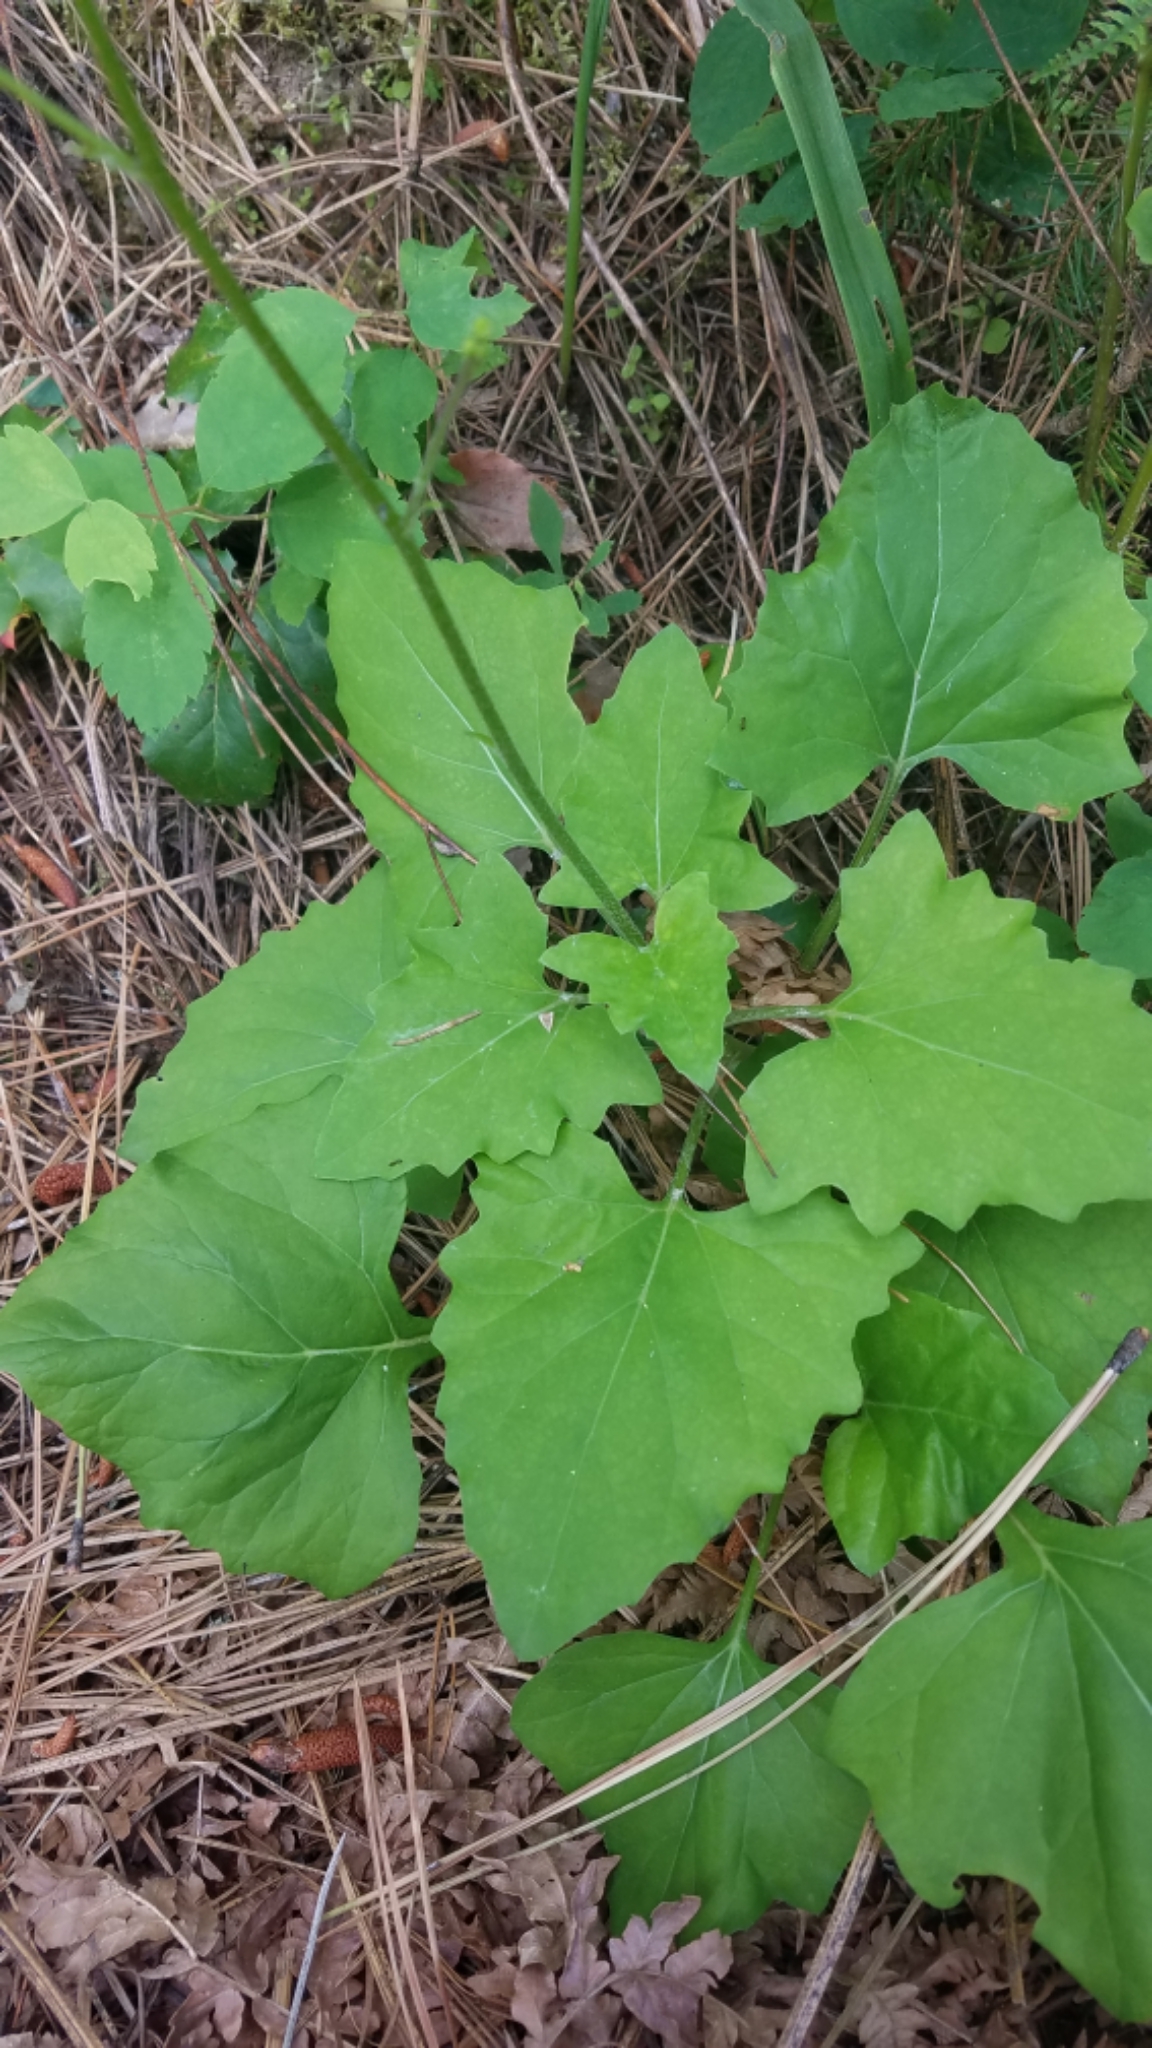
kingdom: Plantae
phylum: Tracheophyta
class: Magnoliopsida
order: Asterales
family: Asteraceae
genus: Adenocaulon
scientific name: Adenocaulon bicolor
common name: Trailplant
